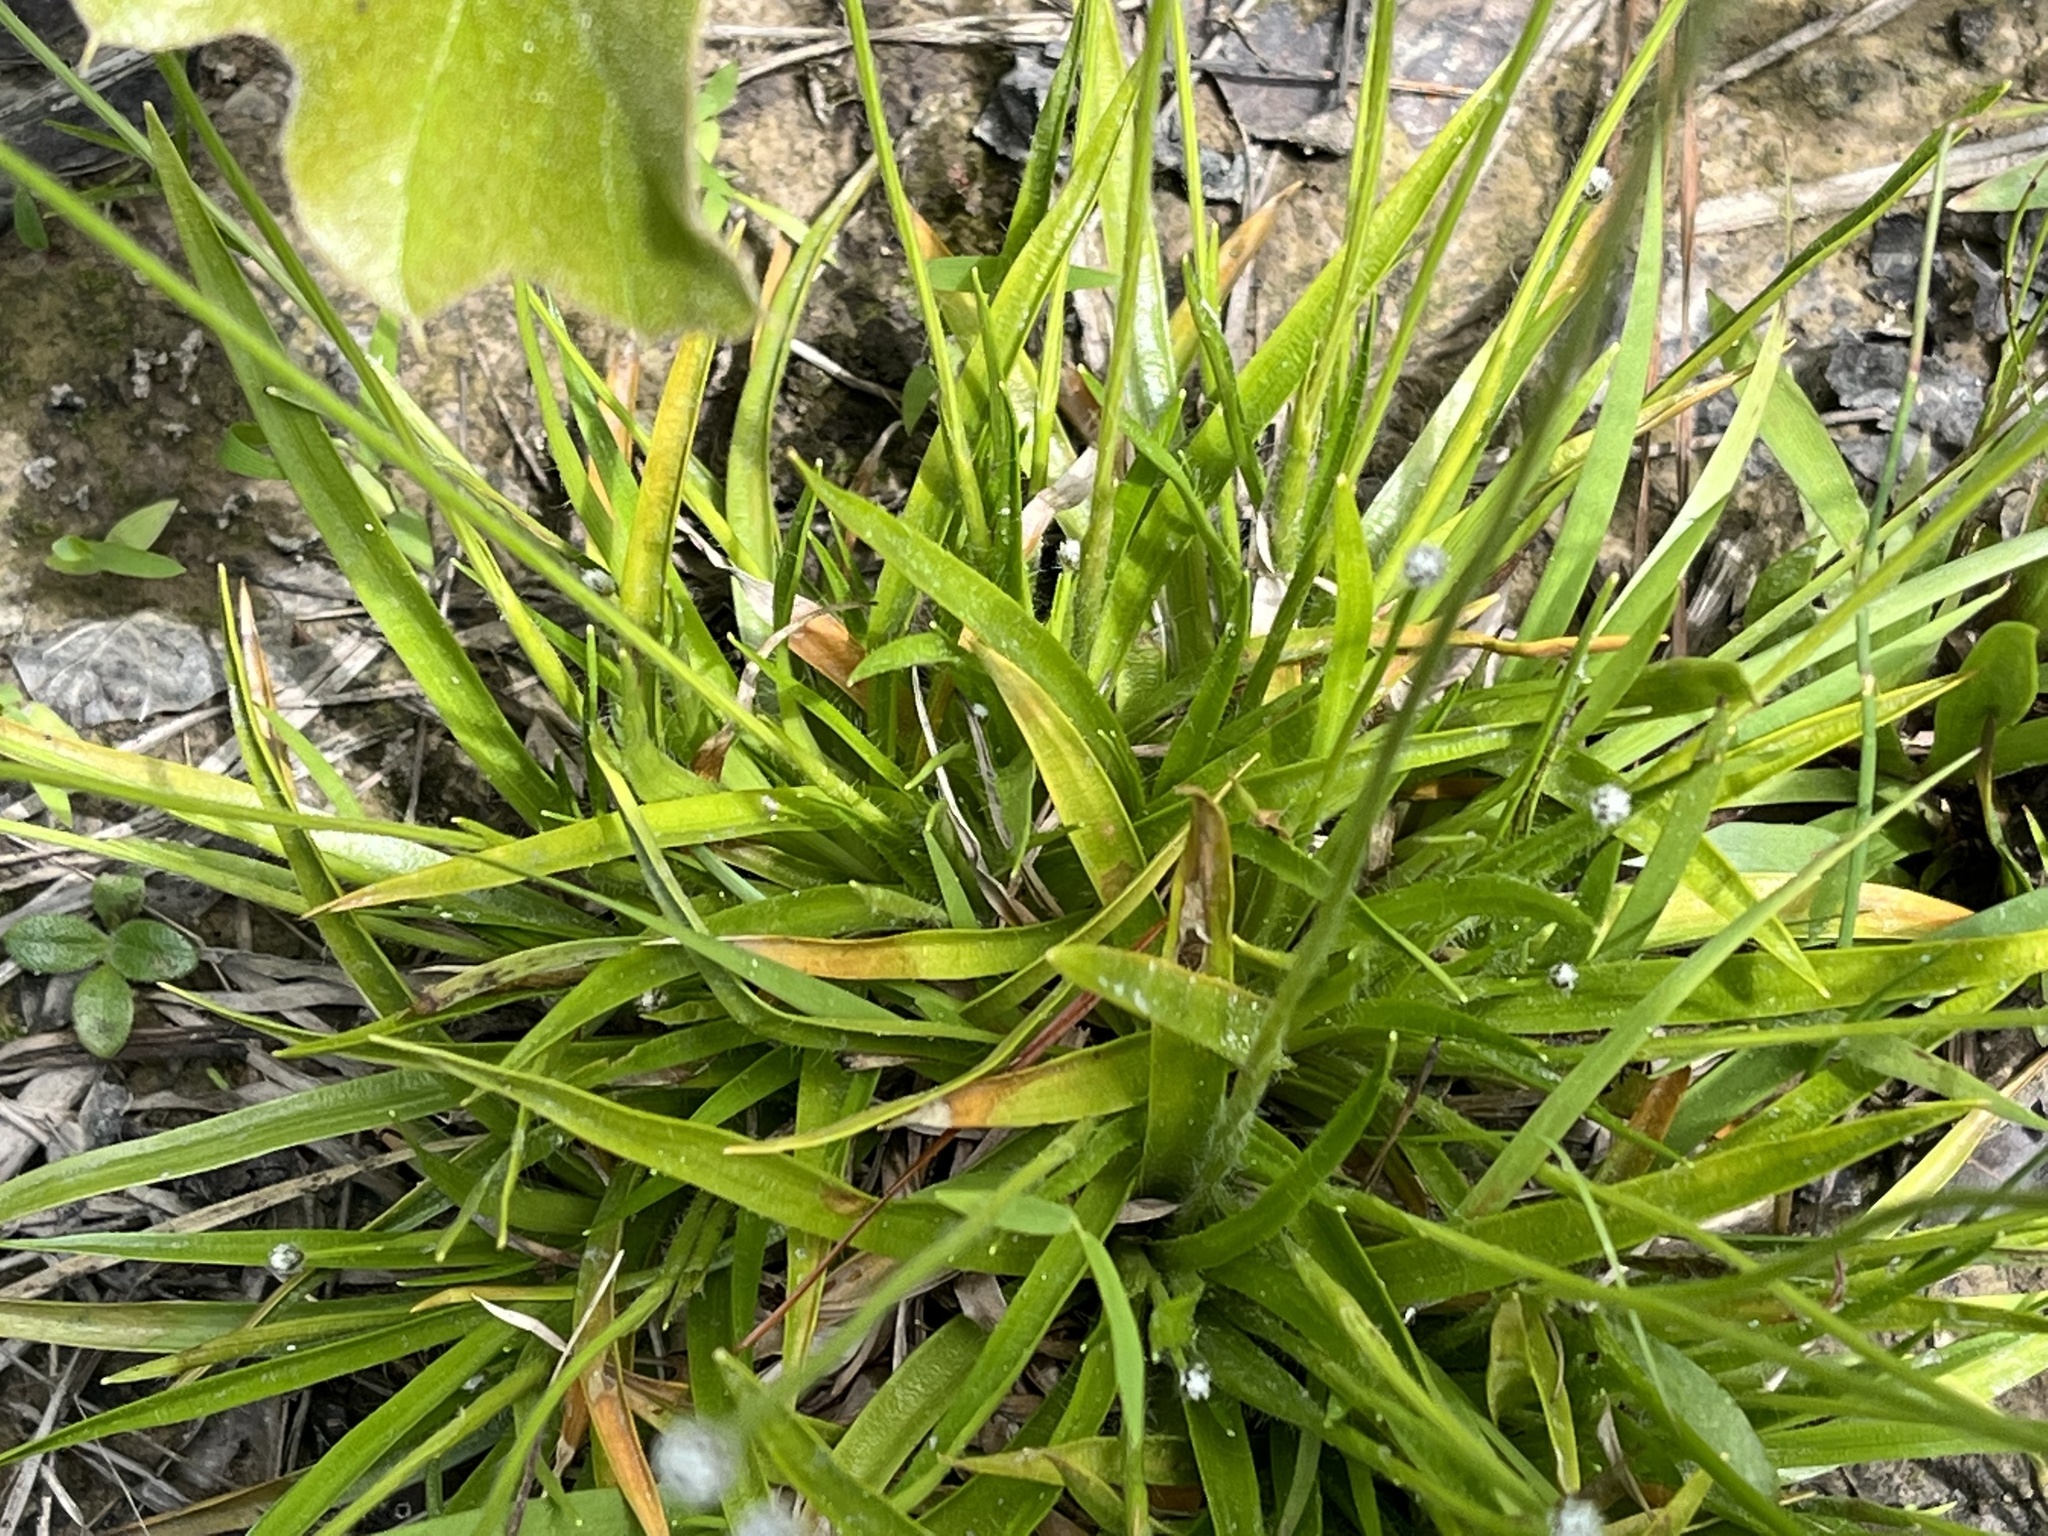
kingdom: Plantae
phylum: Tracheophyta
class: Liliopsida
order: Poales
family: Eriocaulaceae
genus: Paepalanthus
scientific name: Paepalanthus anceps
